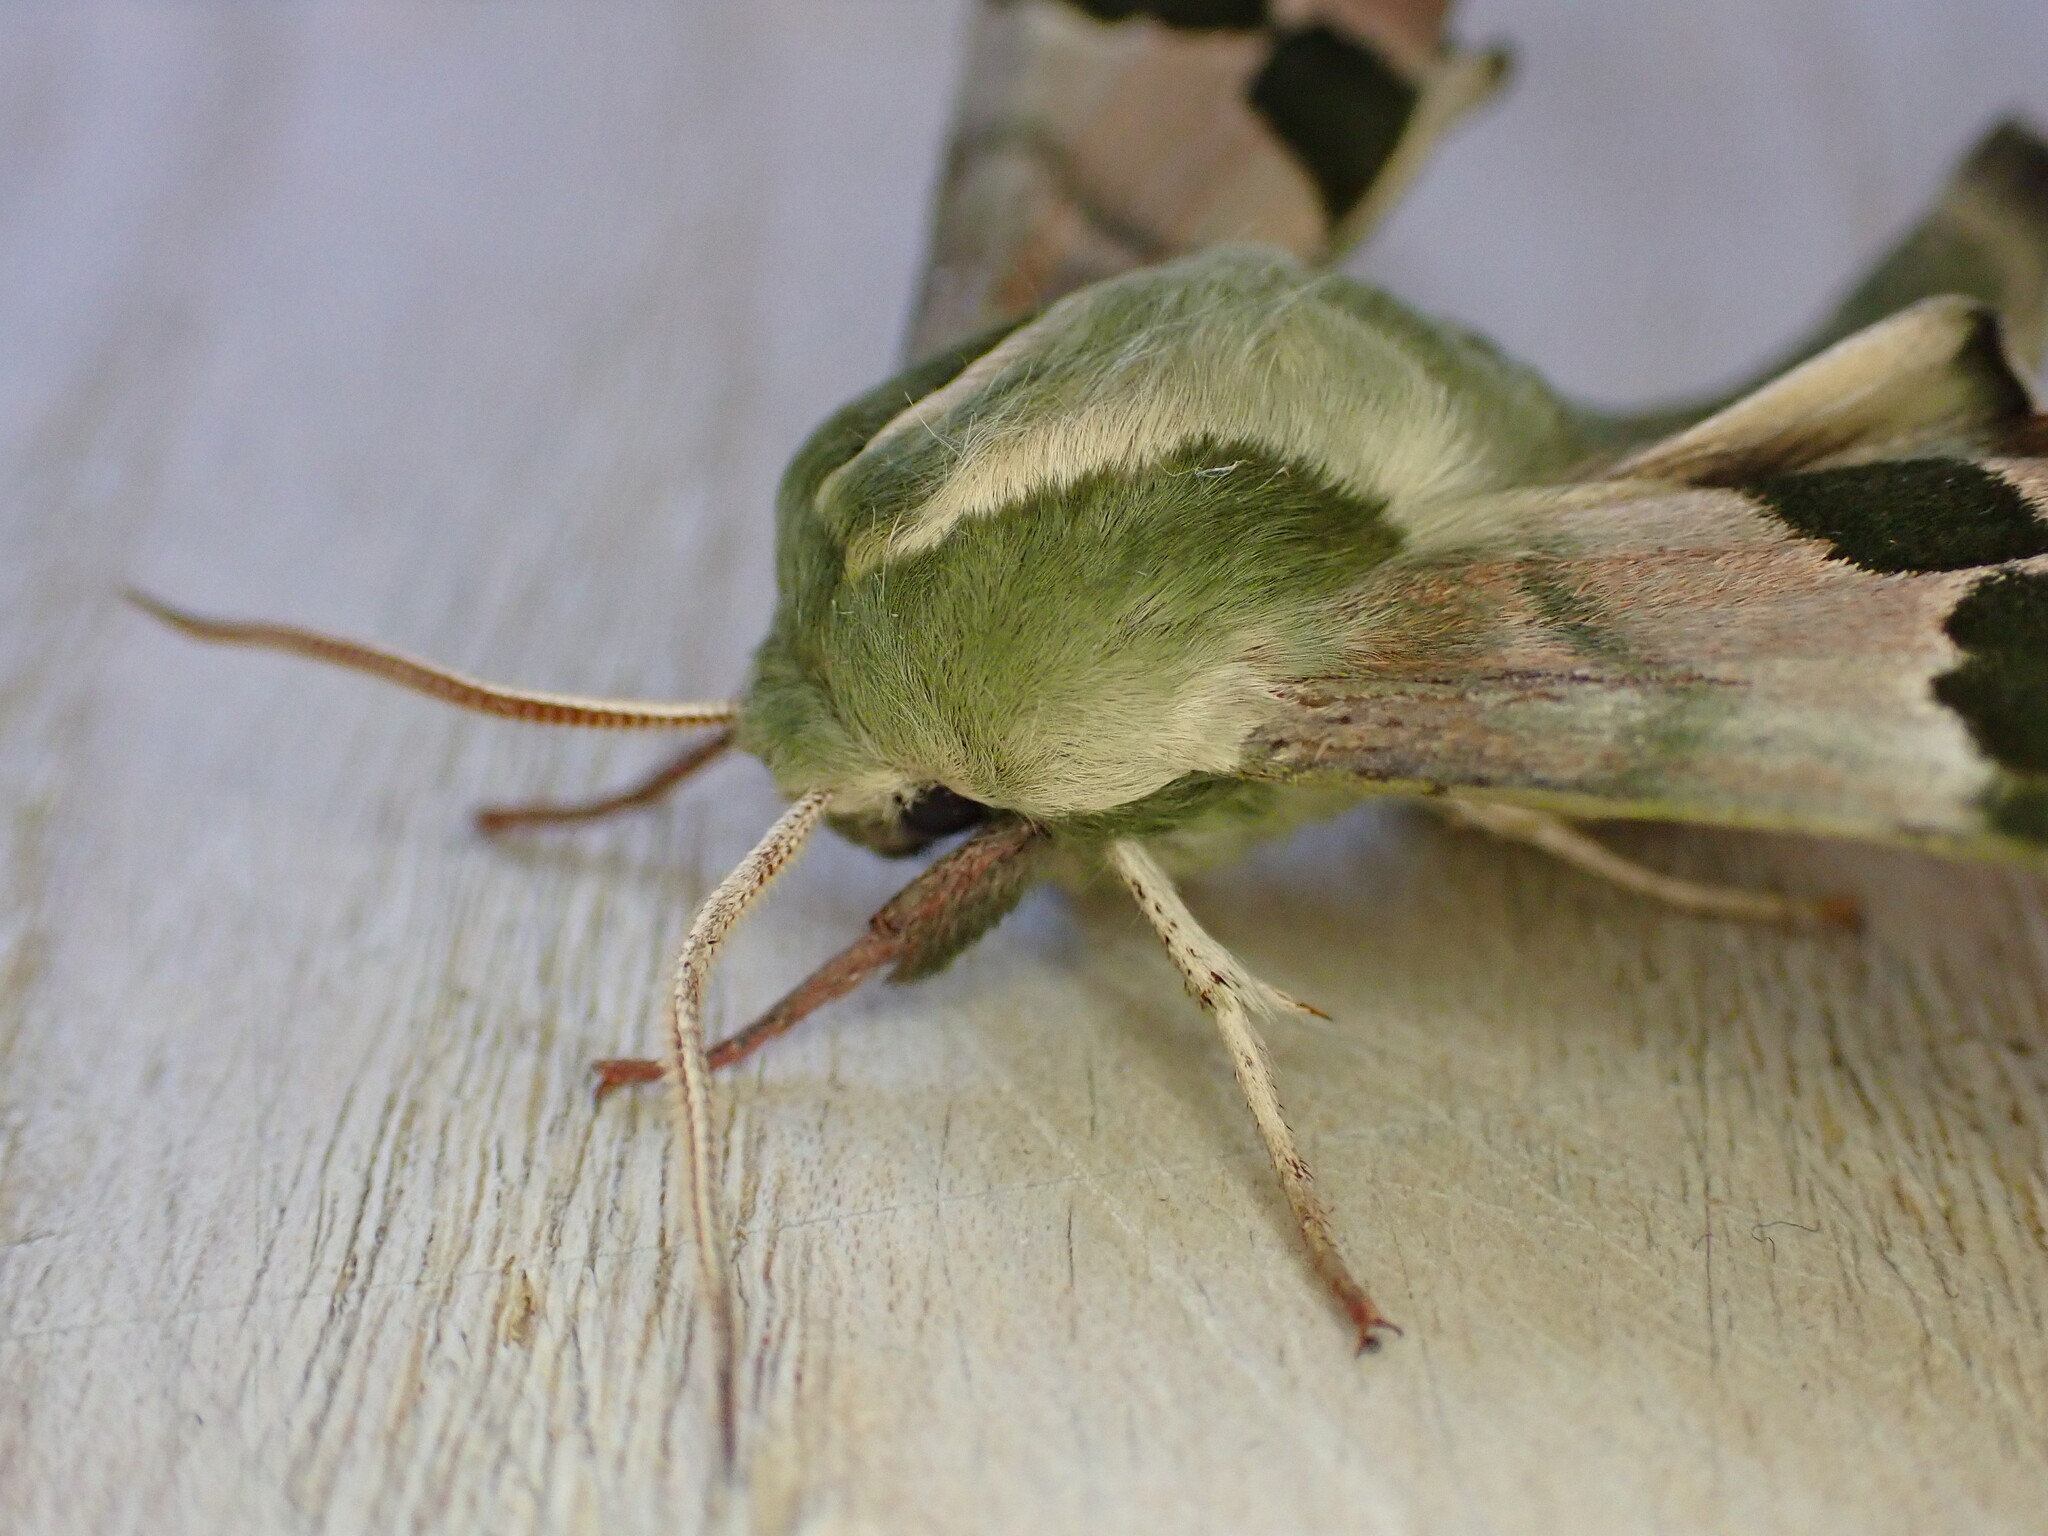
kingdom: Animalia
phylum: Arthropoda
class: Insecta
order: Lepidoptera
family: Sphingidae
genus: Mimas
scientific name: Mimas tiliae
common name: Lime hawk-moth
